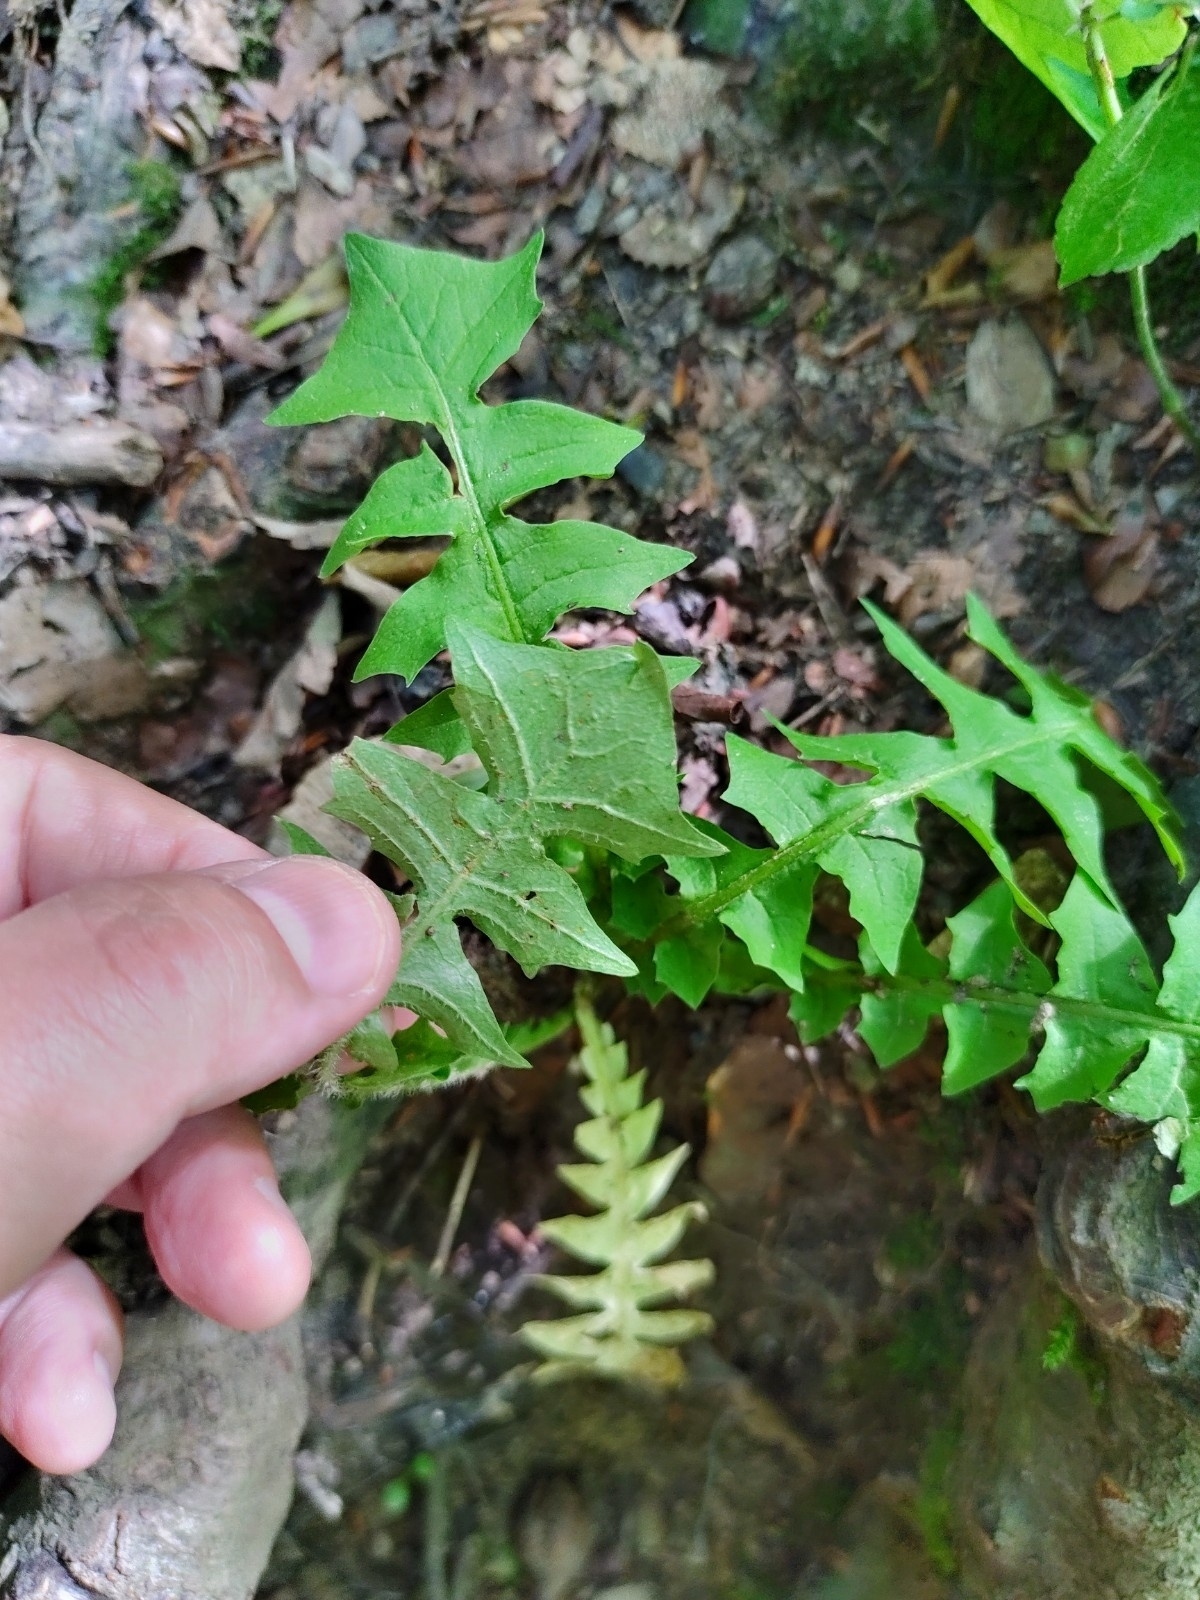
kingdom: Plantae
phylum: Tracheophyta
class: Magnoliopsida
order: Asterales
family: Asteraceae
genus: Aposeris
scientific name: Aposeris foetida
